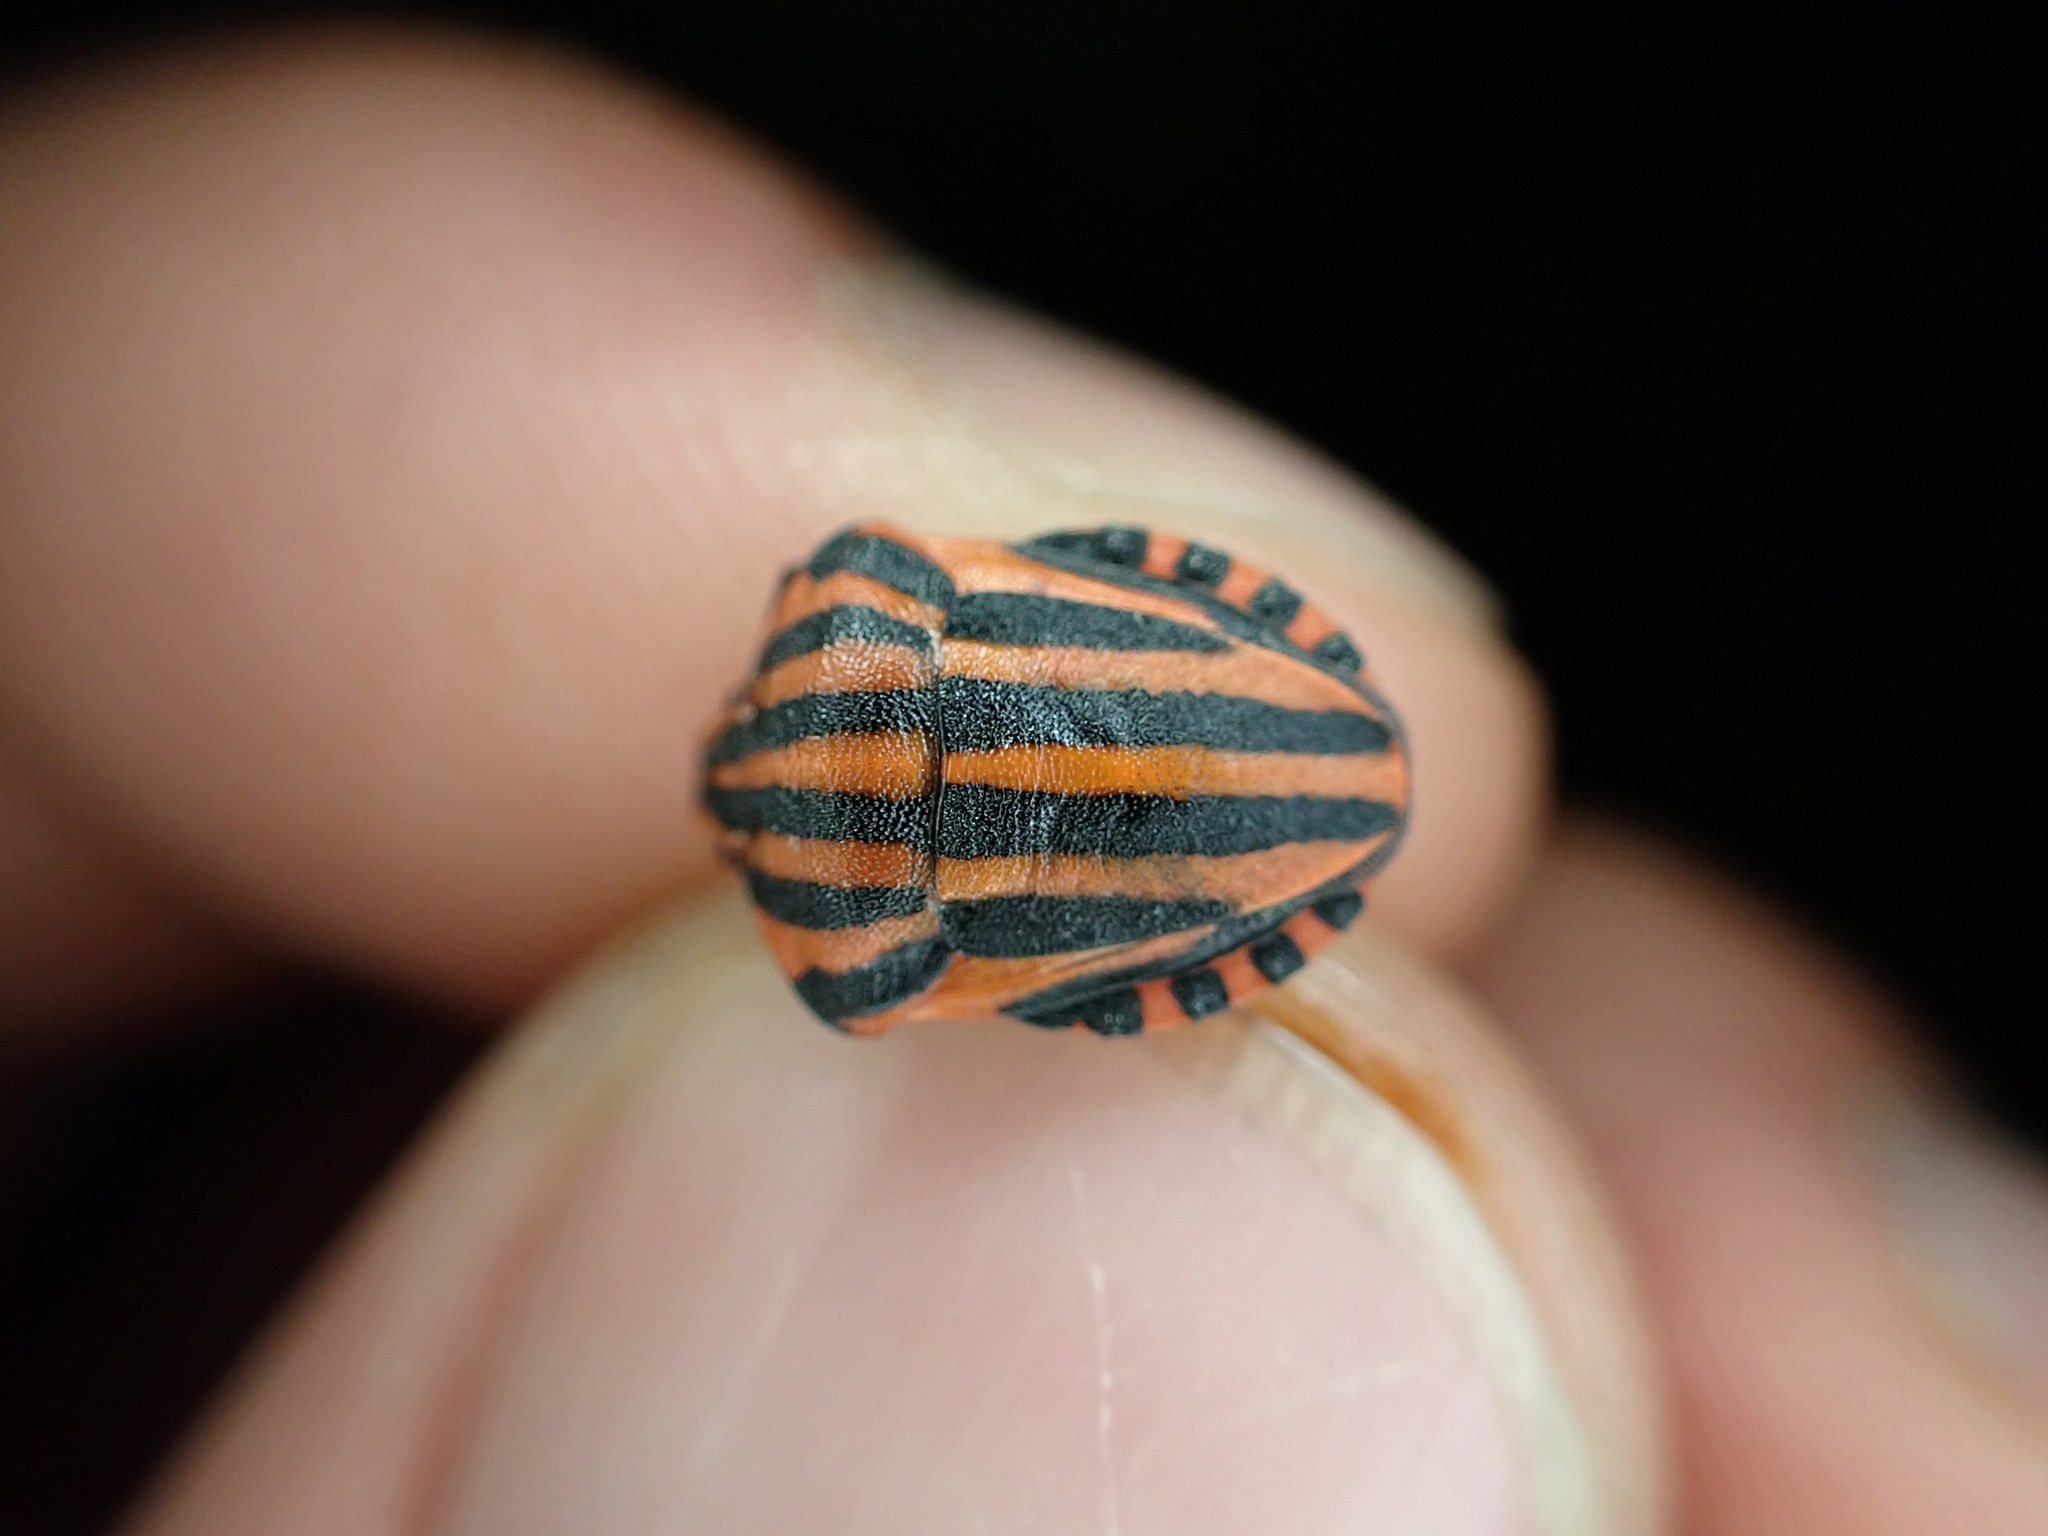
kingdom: Animalia
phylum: Arthropoda
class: Insecta
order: Hemiptera
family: Pentatomidae
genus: Graphosoma
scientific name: Graphosoma italicum
